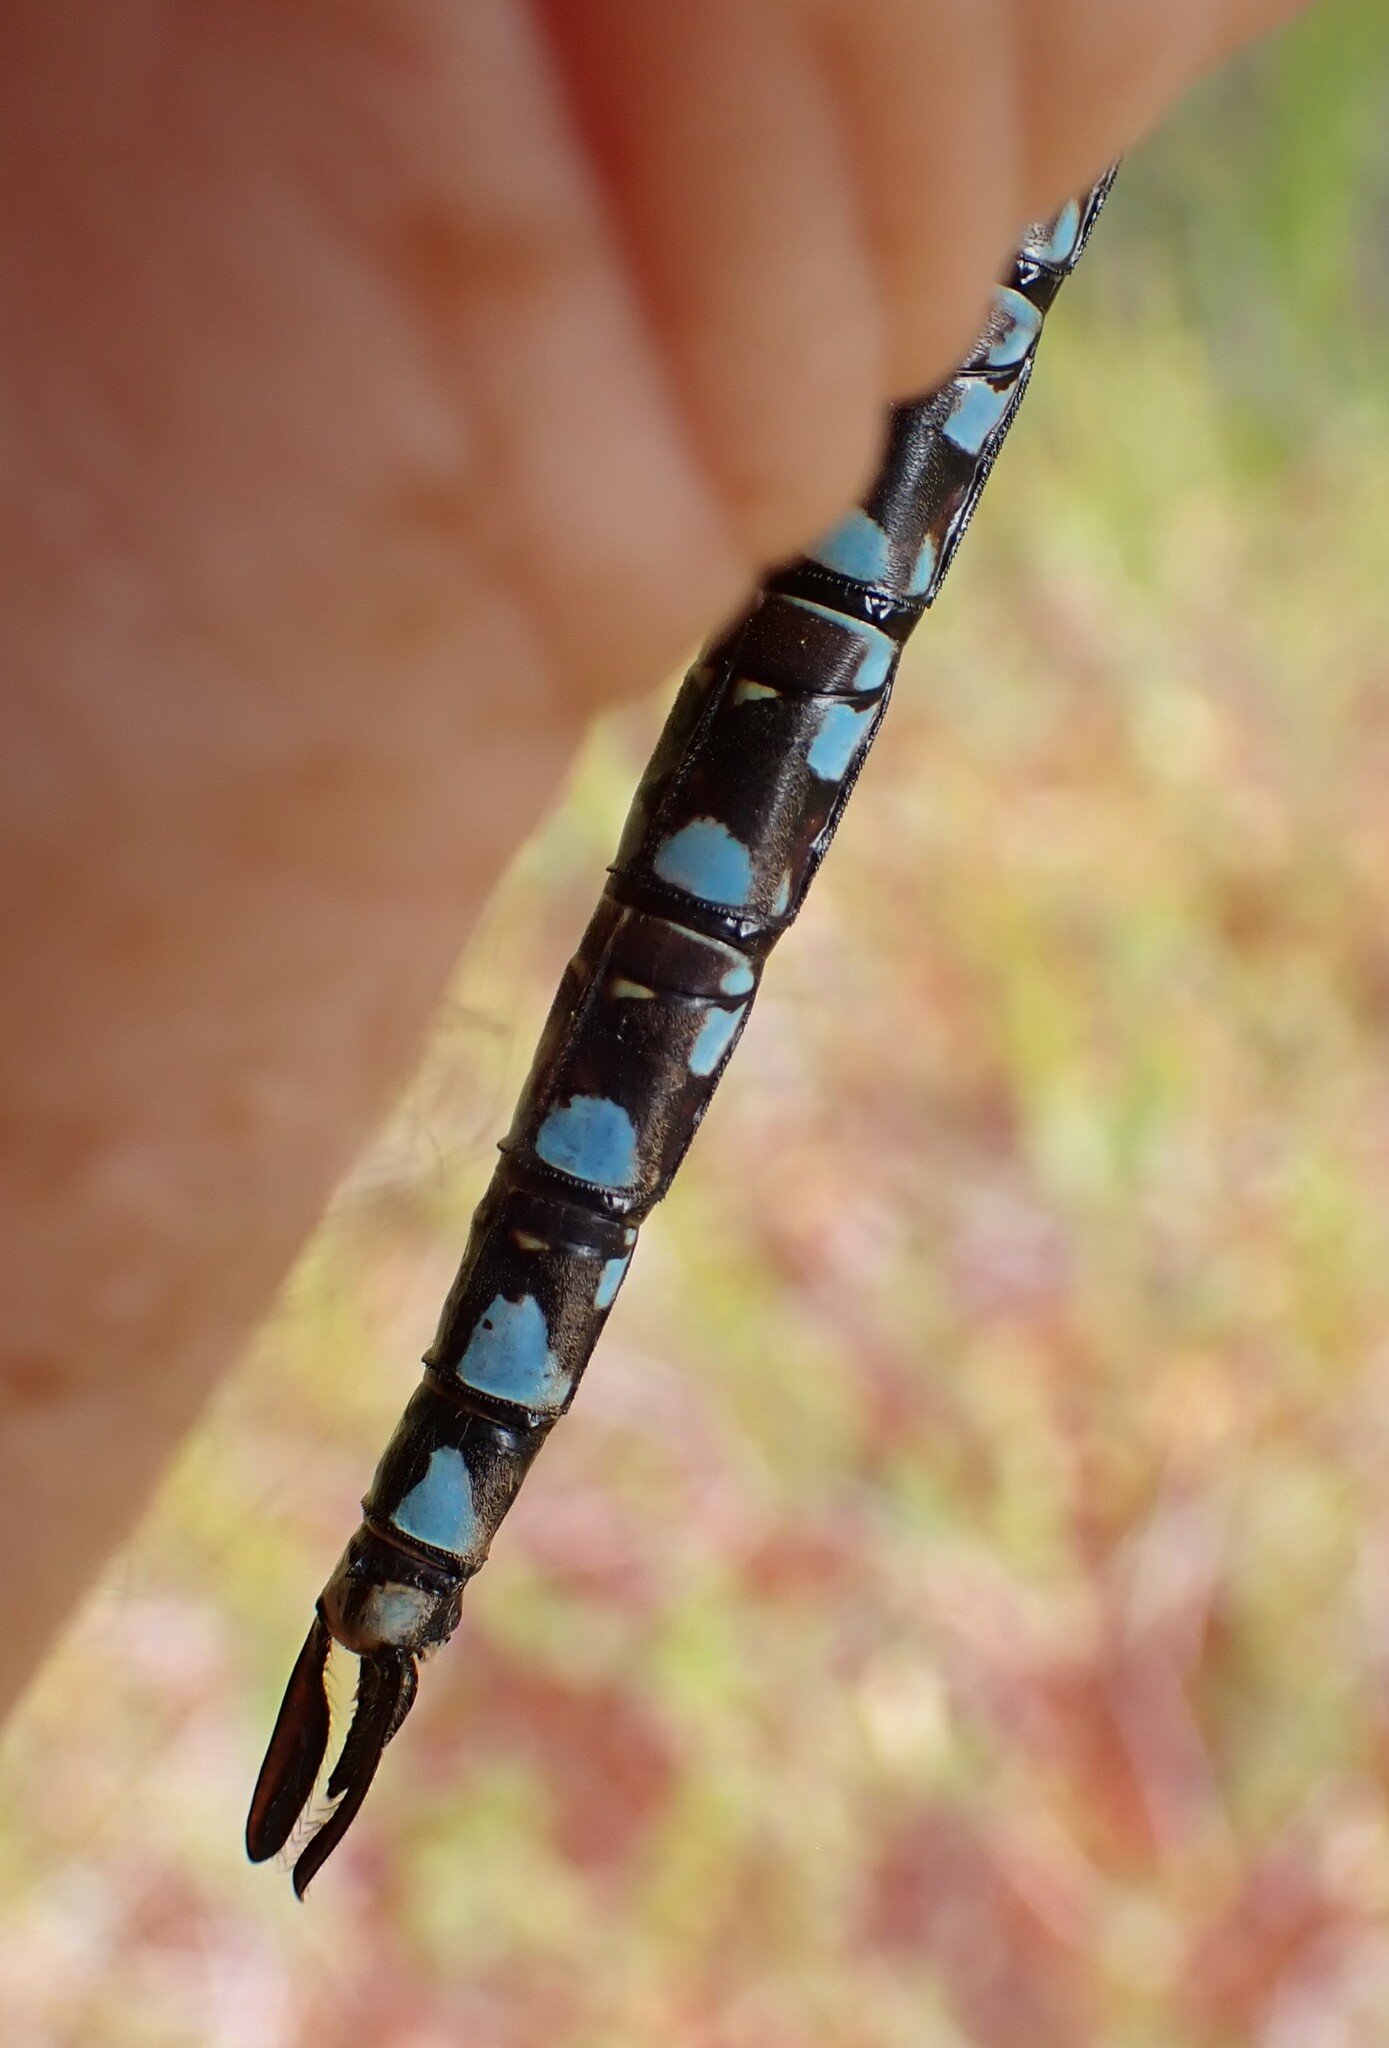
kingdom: Animalia
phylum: Arthropoda
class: Insecta
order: Odonata
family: Aeshnidae
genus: Aeshna
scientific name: Aeshna canadensis
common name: Canada darner
